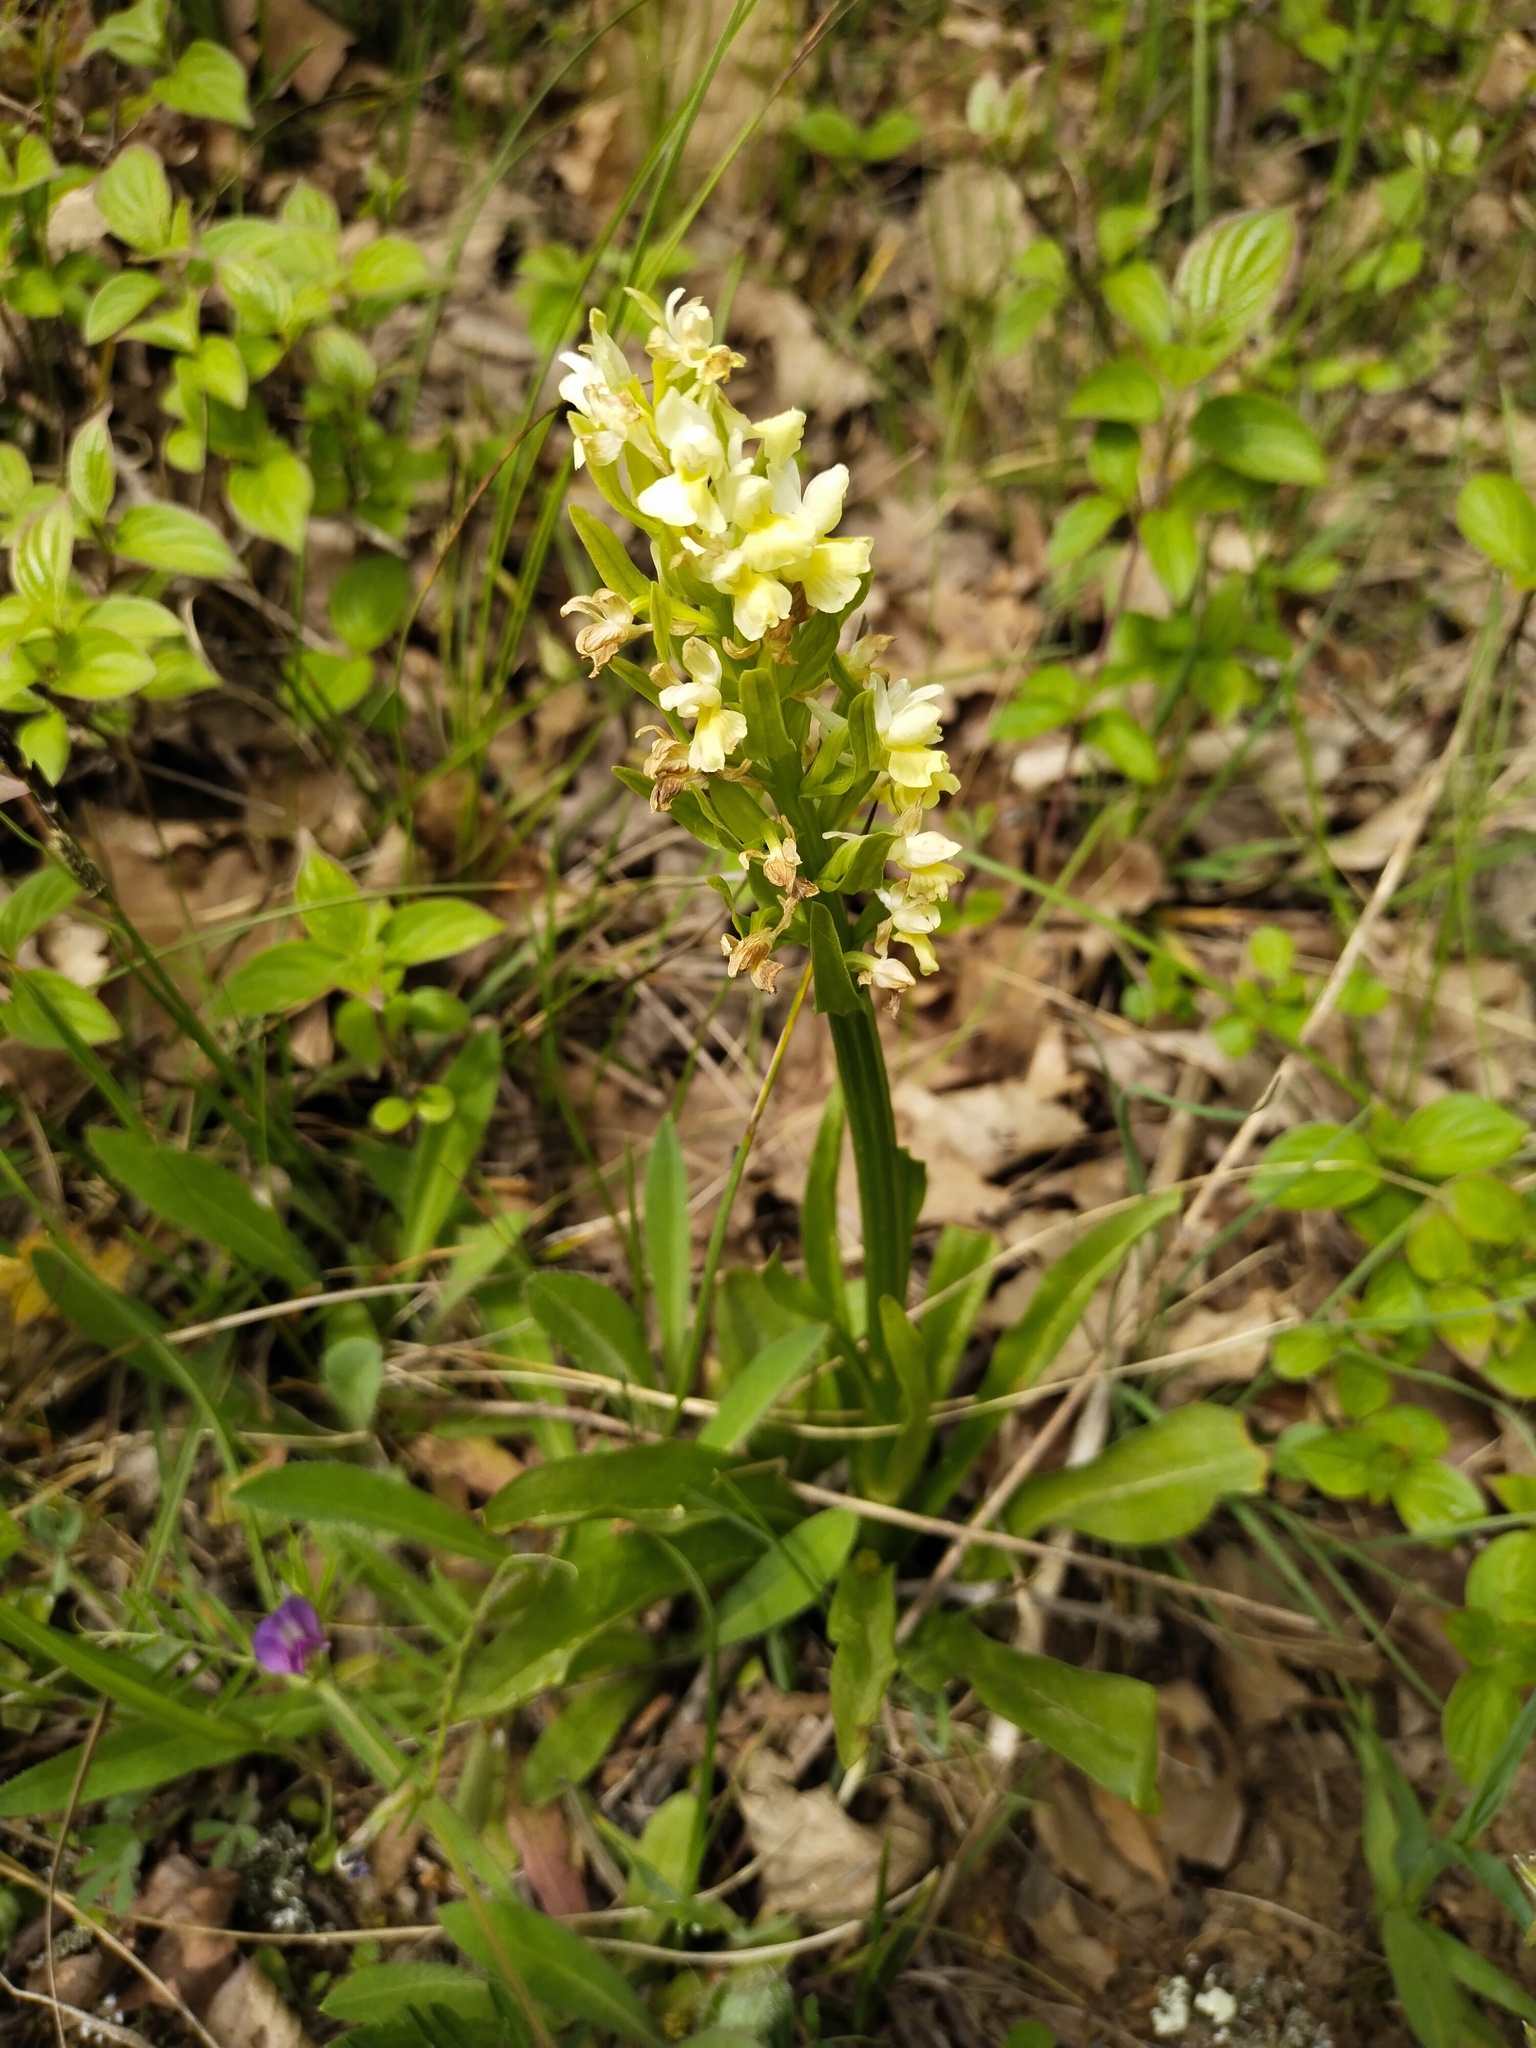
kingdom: Plantae
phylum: Tracheophyta
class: Liliopsida
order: Asparagales
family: Orchidaceae
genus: Dactylorhiza
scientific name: Dactylorhiza romana
